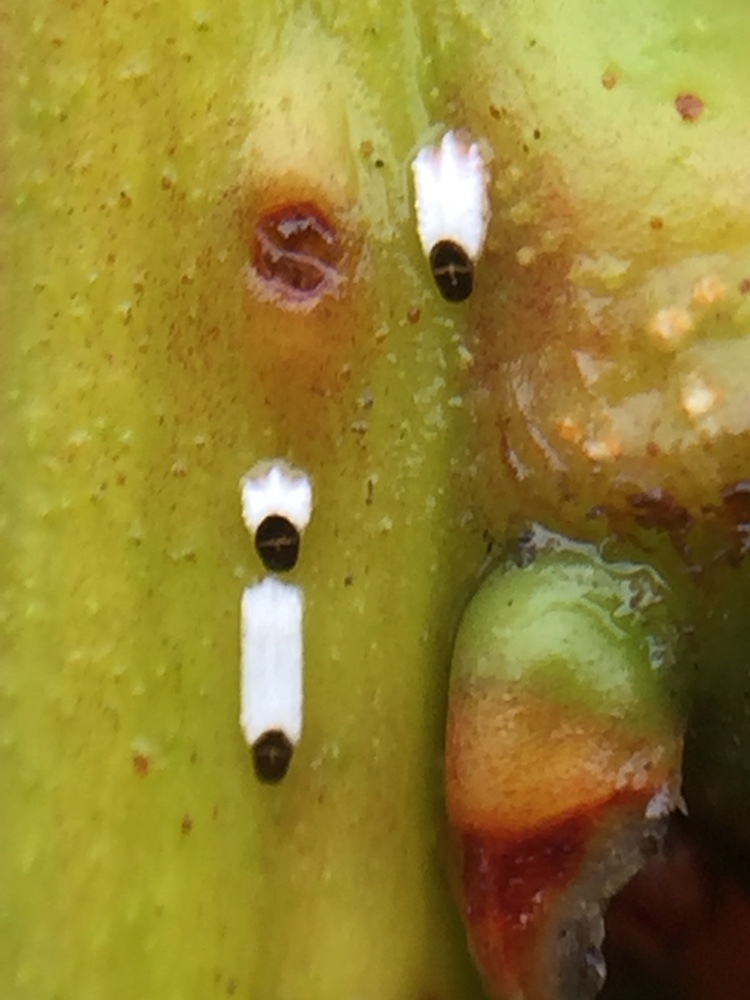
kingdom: Animalia
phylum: Arthropoda
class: Insecta
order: Hemiptera
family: Diaspididae
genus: Trullifiorinia
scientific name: Trullifiorinia acaciae
